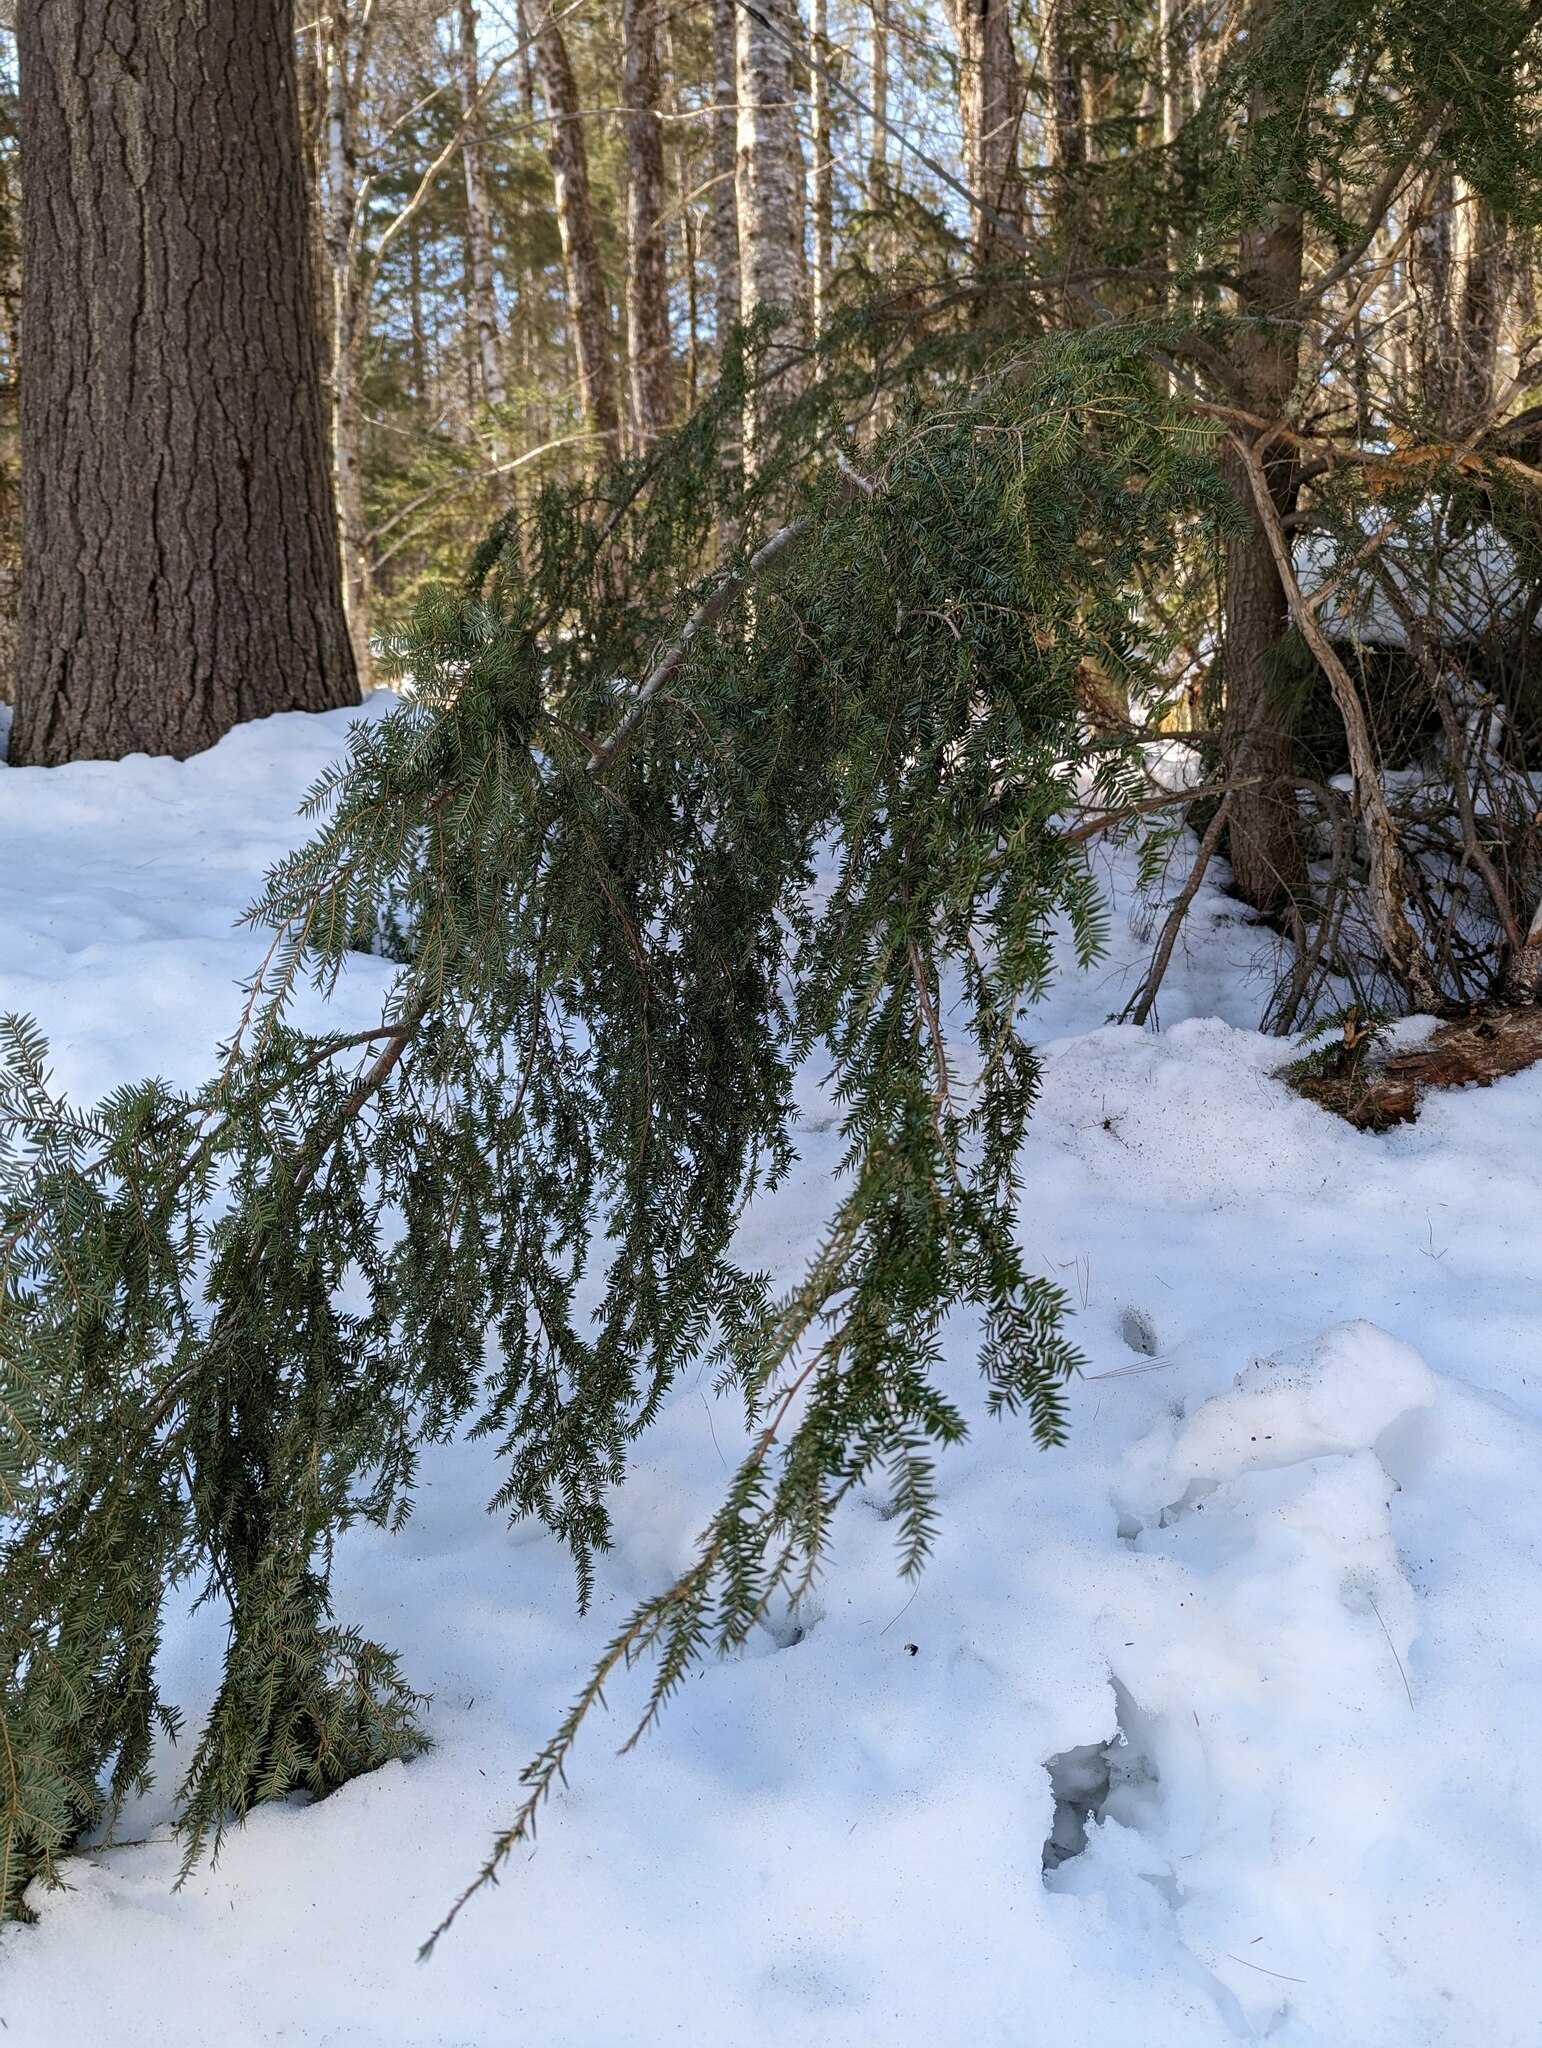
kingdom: Plantae
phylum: Tracheophyta
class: Pinopsida
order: Pinales
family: Pinaceae
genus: Tsuga
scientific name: Tsuga canadensis
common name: Eastern hemlock
